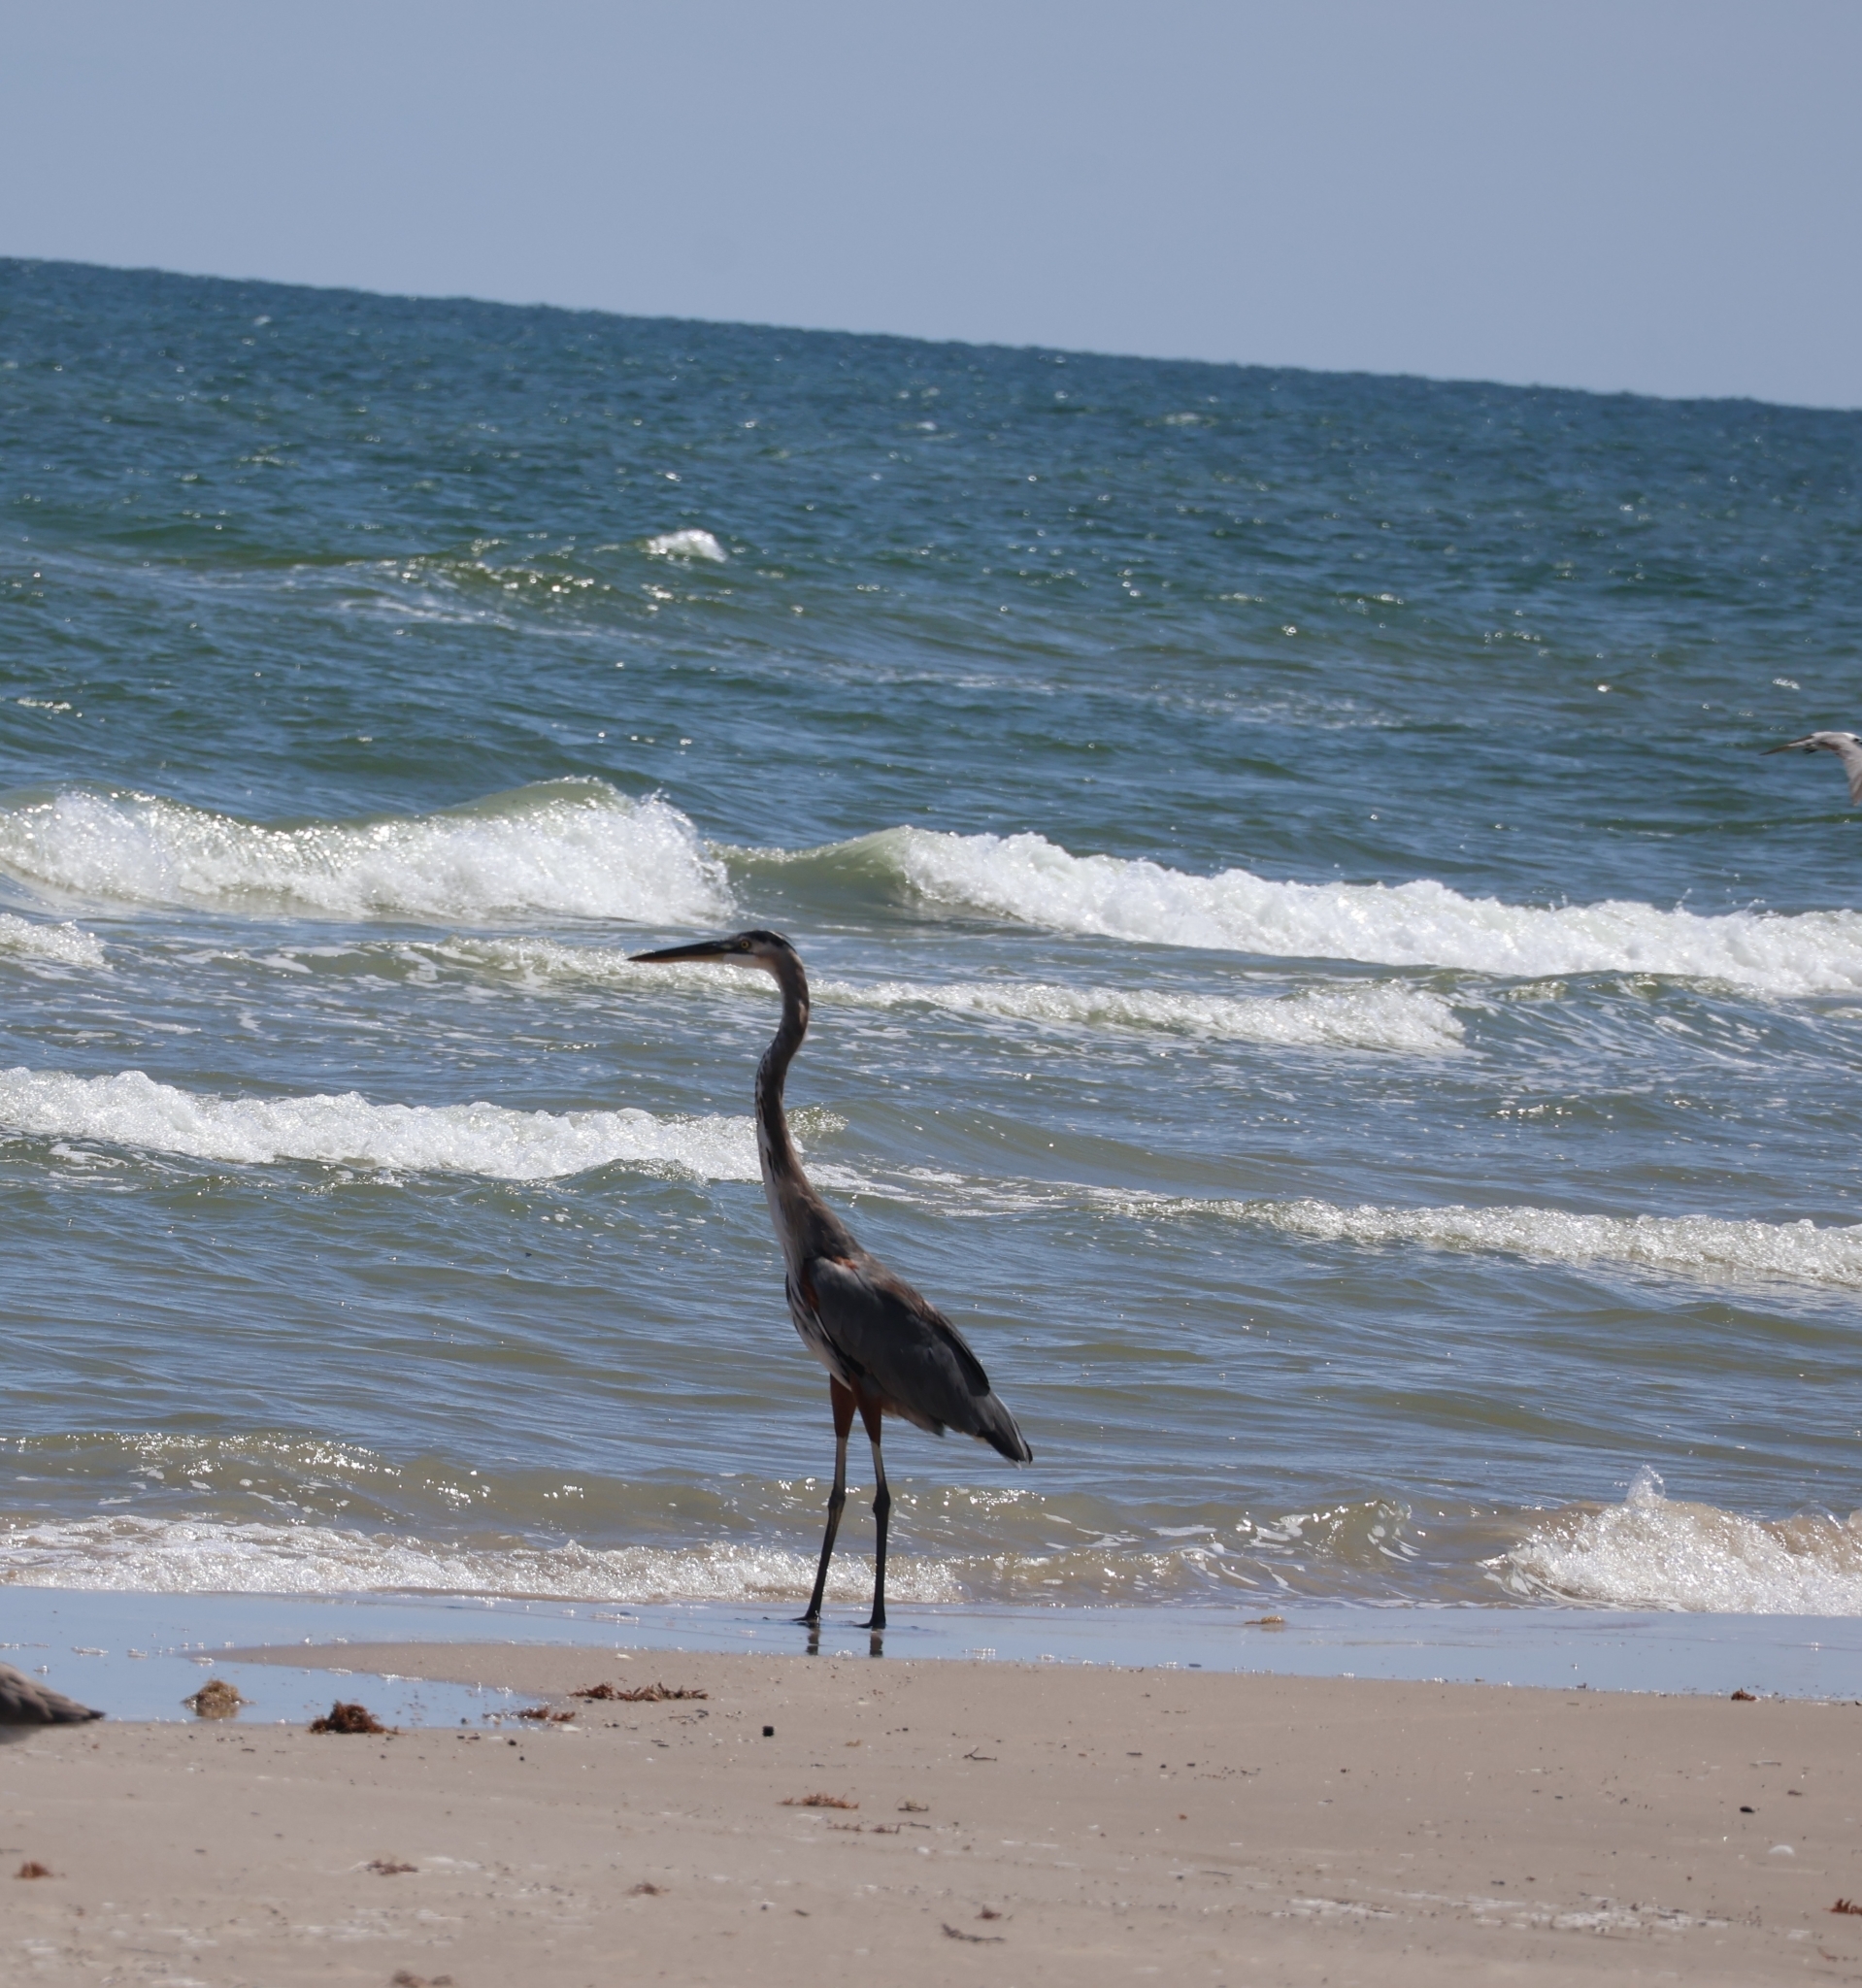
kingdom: Animalia
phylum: Chordata
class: Aves
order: Pelecaniformes
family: Ardeidae
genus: Ardea
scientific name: Ardea herodias
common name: Great blue heron
